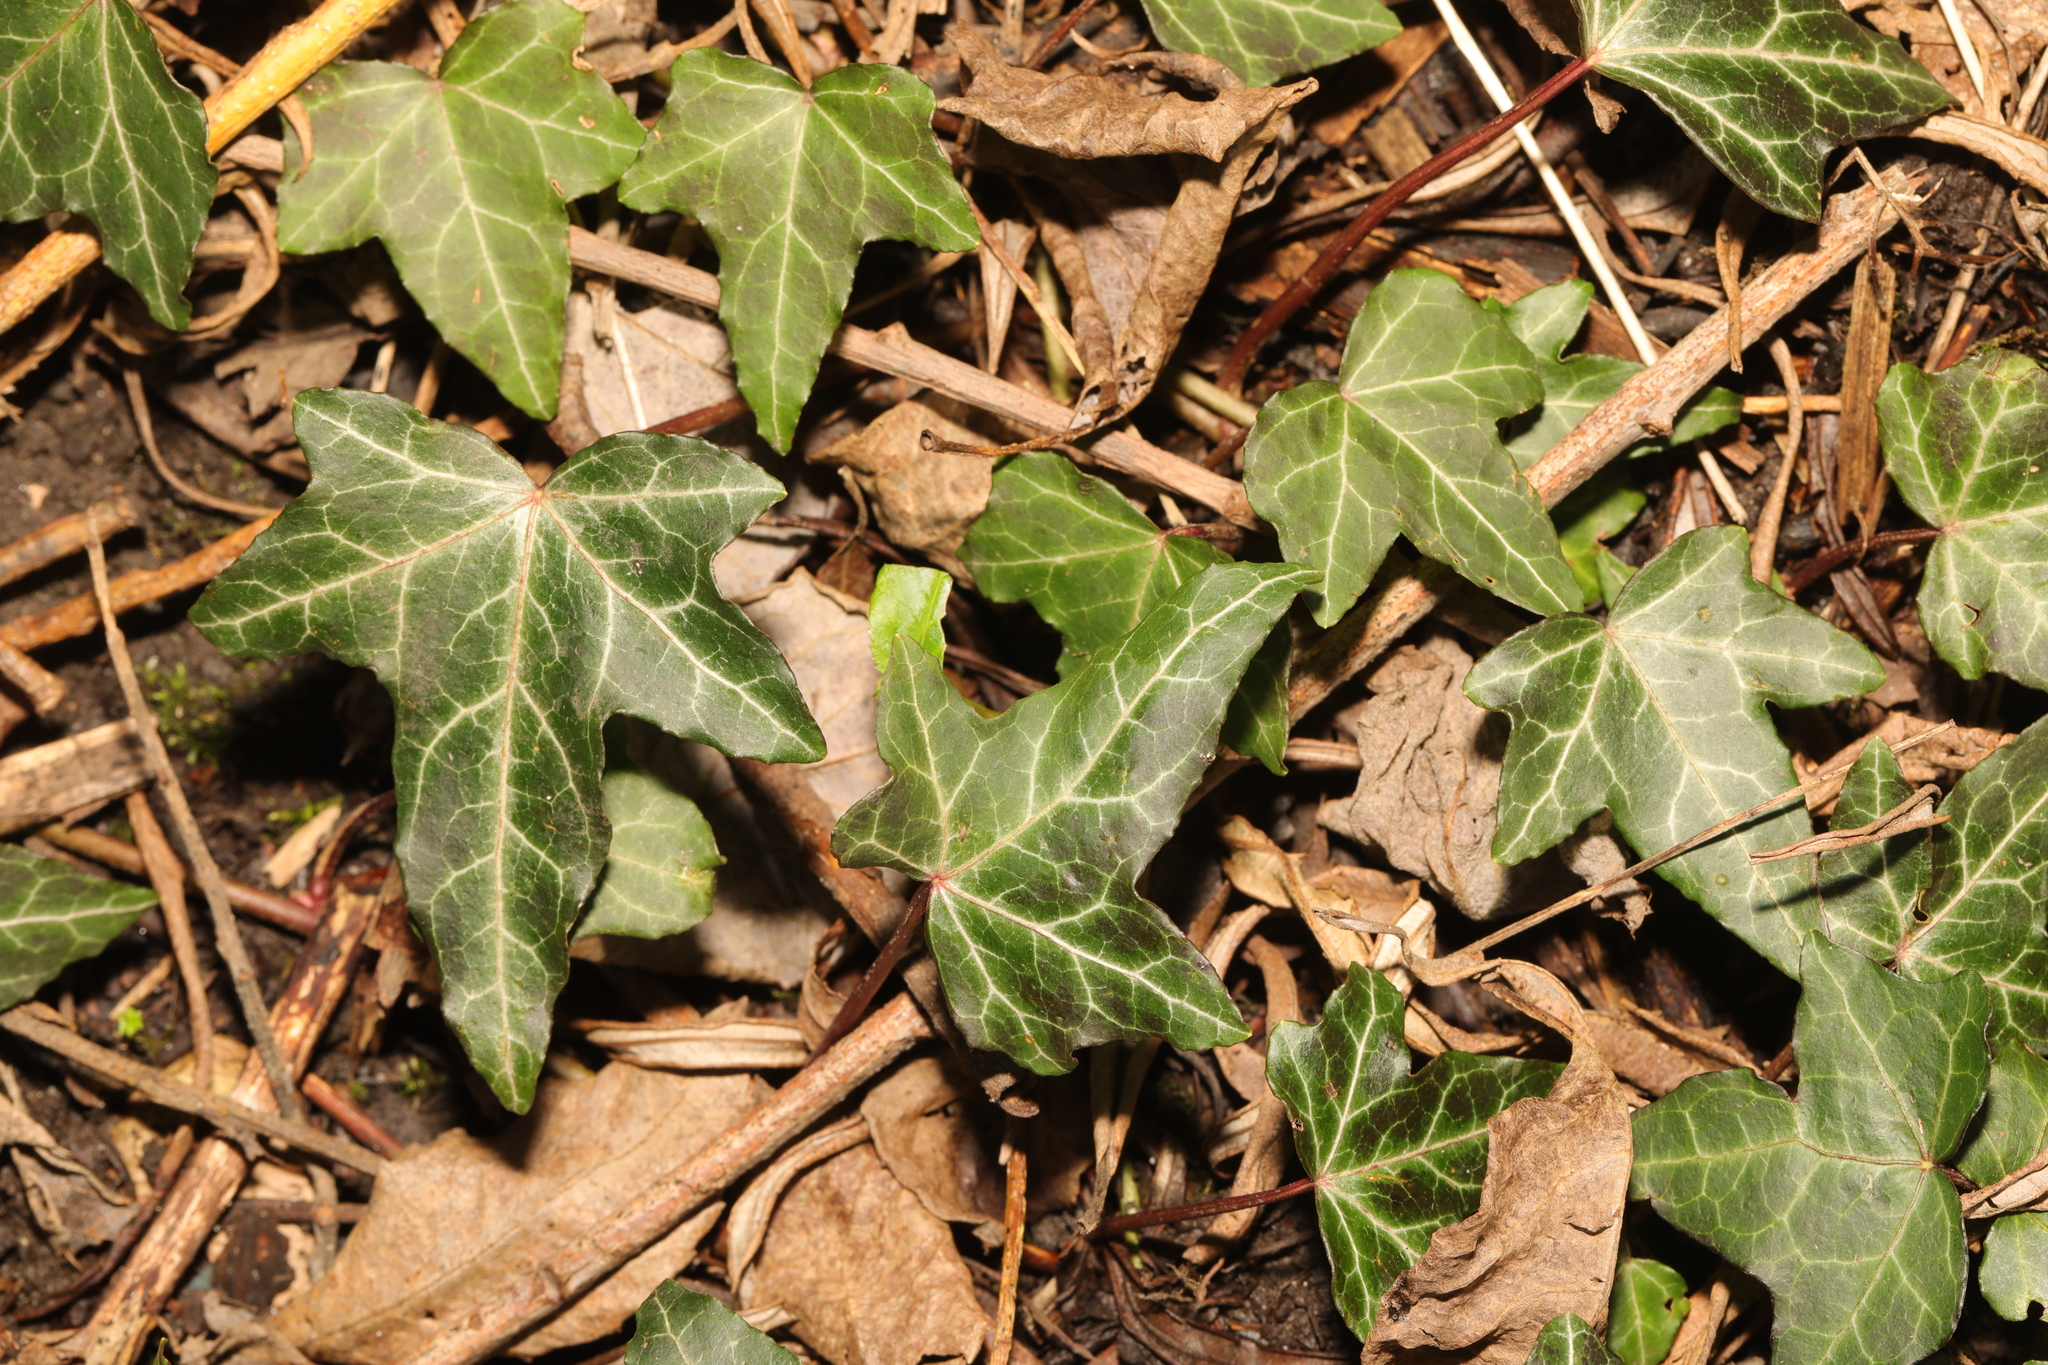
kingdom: Plantae
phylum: Tracheophyta
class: Magnoliopsida
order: Apiales
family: Araliaceae
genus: Hedera
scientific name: Hedera helix
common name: Ivy
